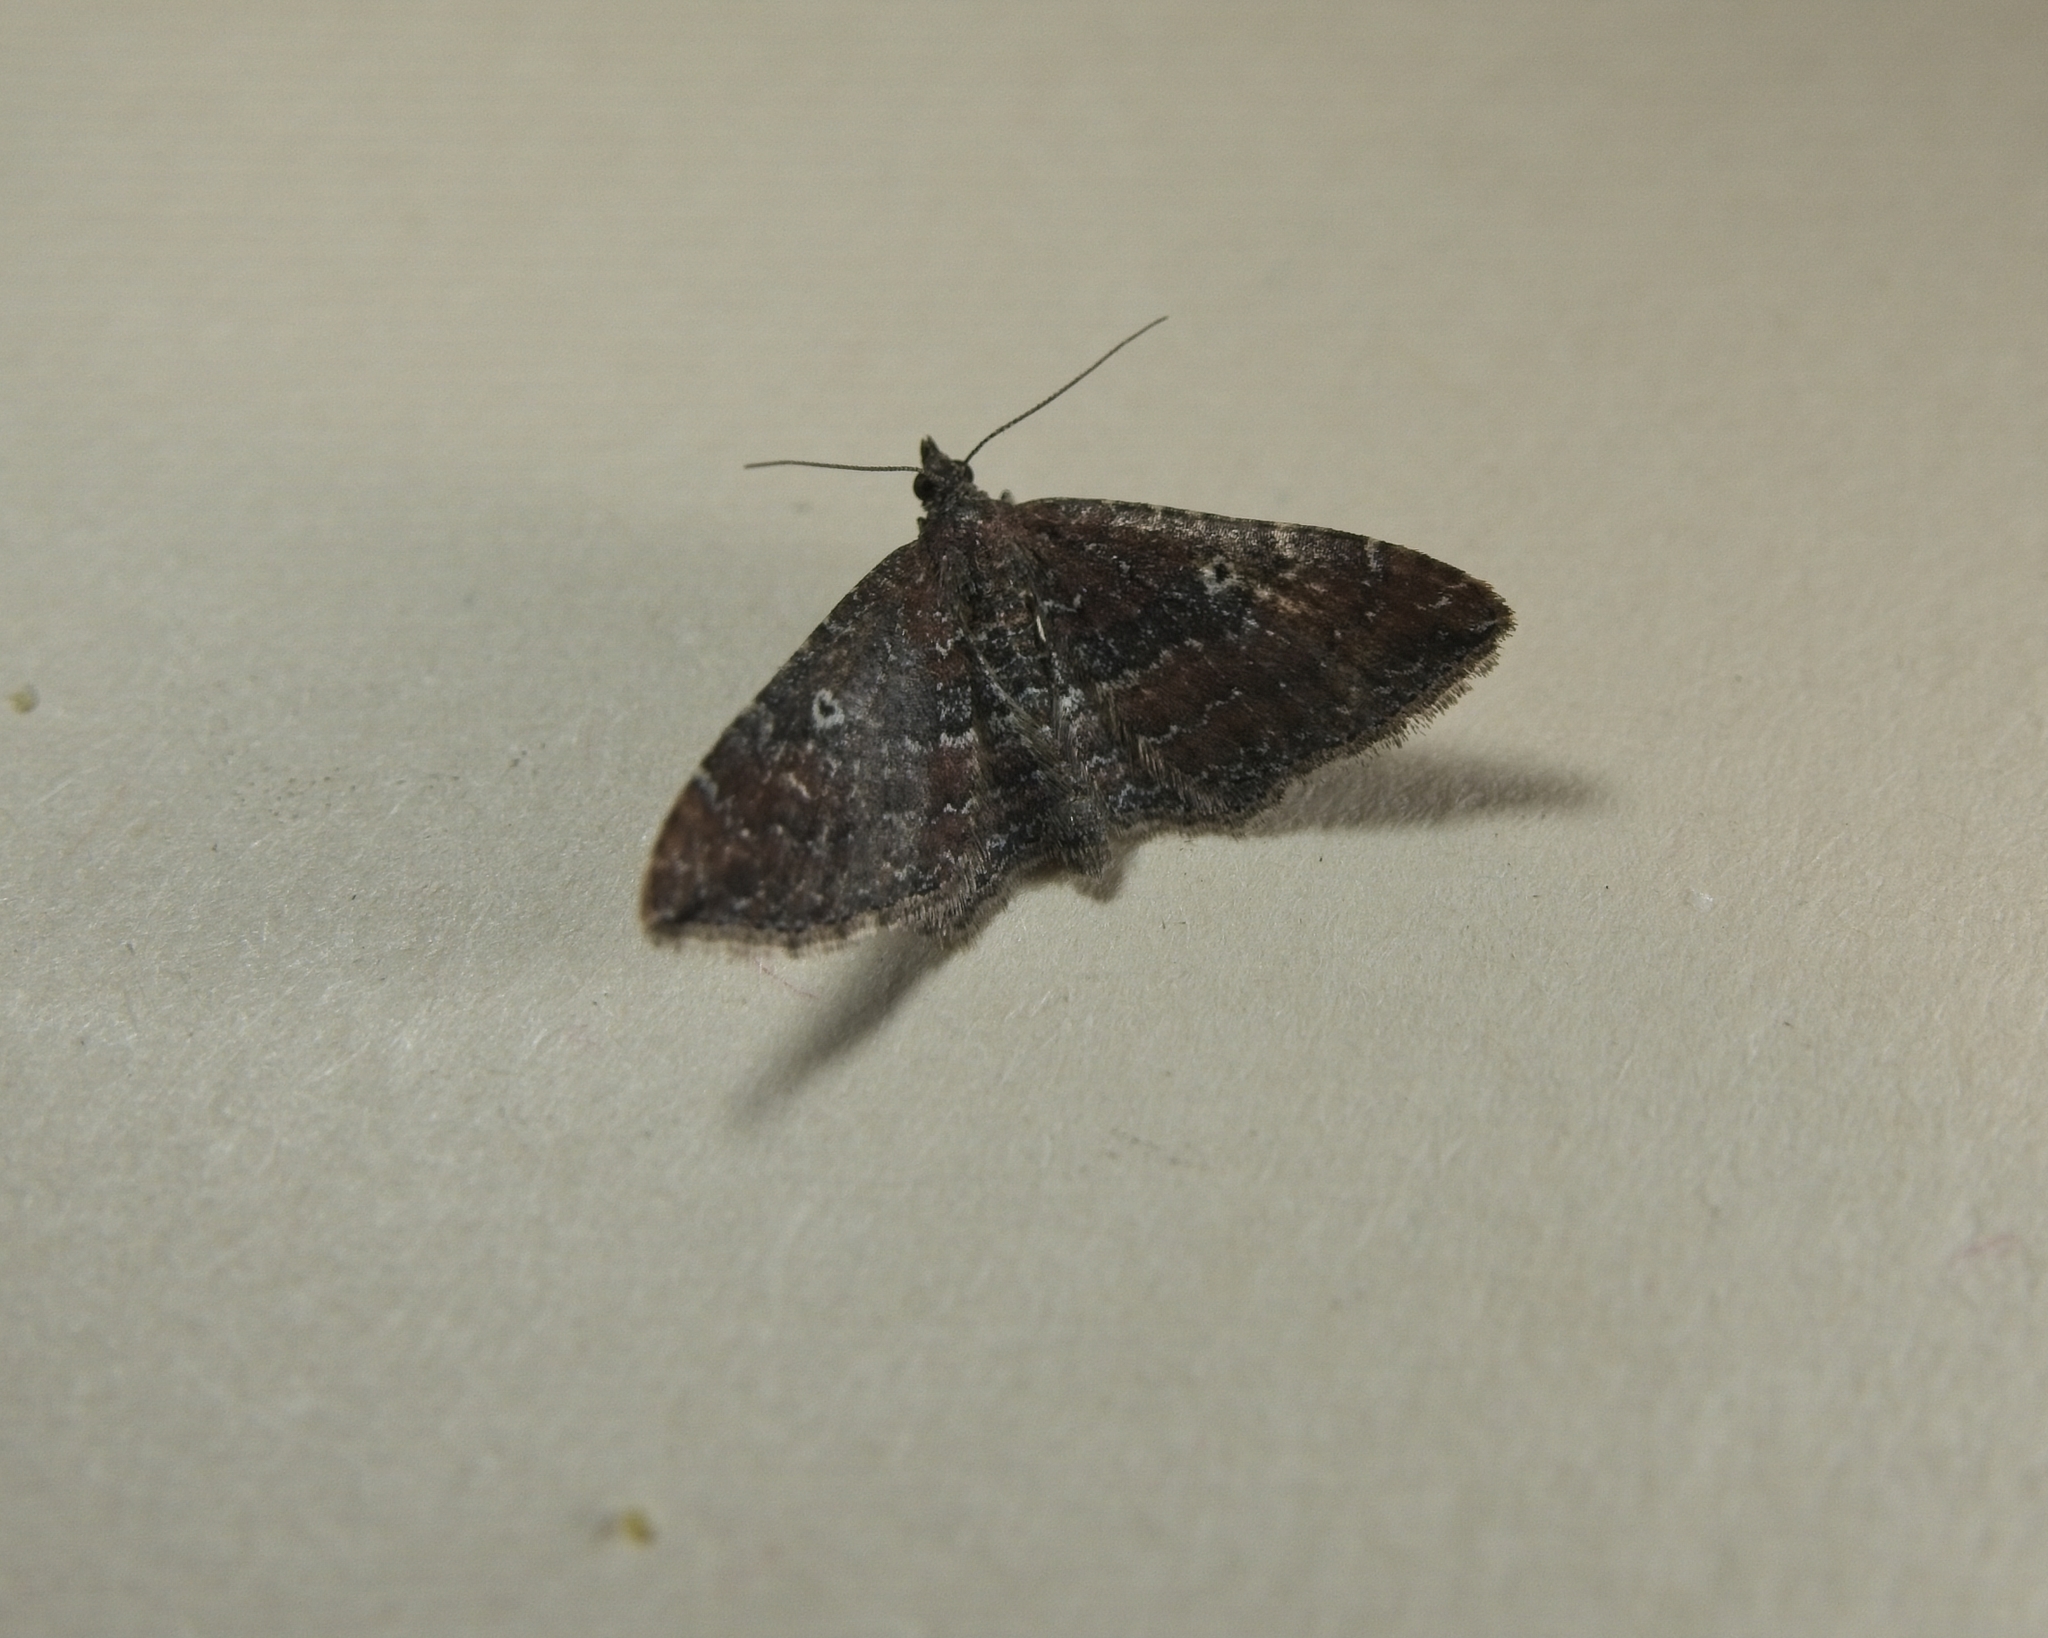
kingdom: Animalia
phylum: Arthropoda
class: Insecta
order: Lepidoptera
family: Geometridae
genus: Orthonama
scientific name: Orthonama obstipata
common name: The gem
